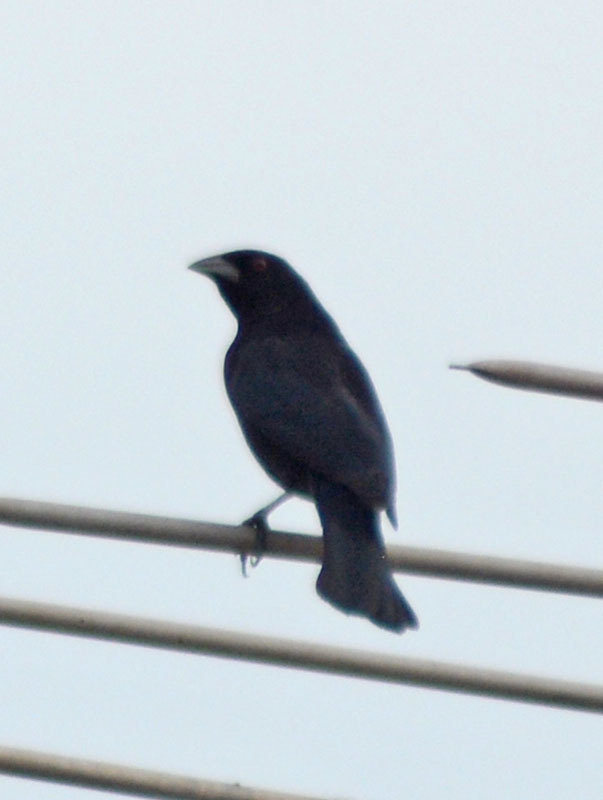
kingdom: Animalia
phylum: Chordata
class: Aves
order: Passeriformes
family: Icteridae
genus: Molothrus
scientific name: Molothrus aeneus
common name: Bronzed cowbird
